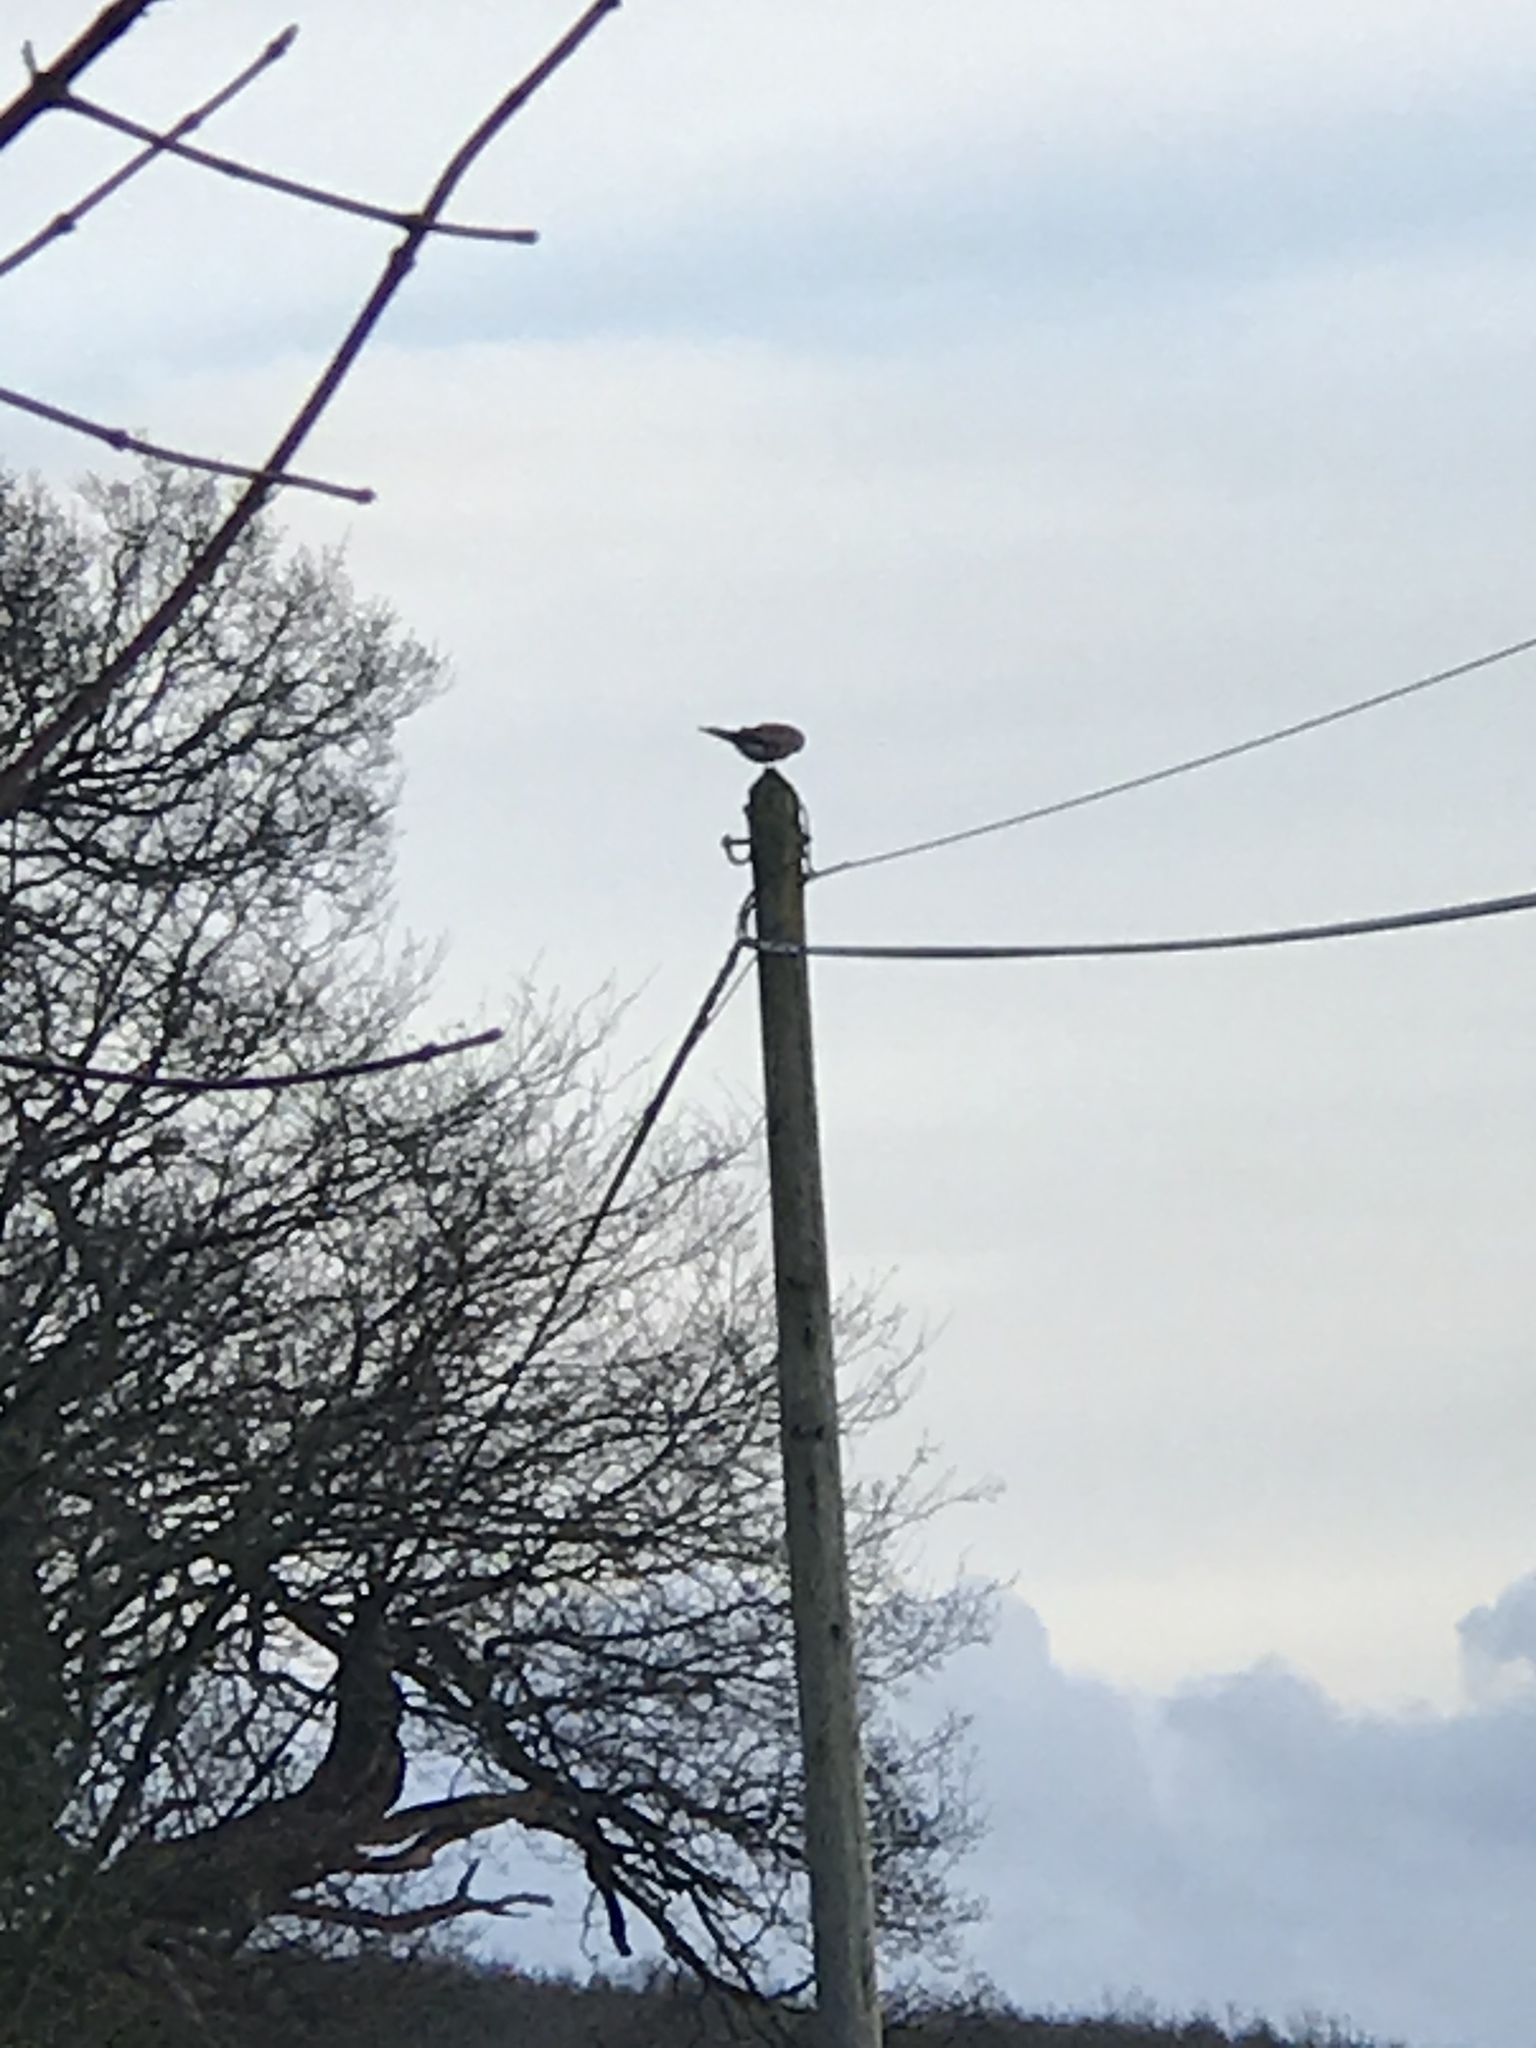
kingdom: Animalia
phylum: Chordata
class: Aves
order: Falconiformes
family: Falconidae
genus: Falco
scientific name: Falco tinnunculus
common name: Common kestrel
